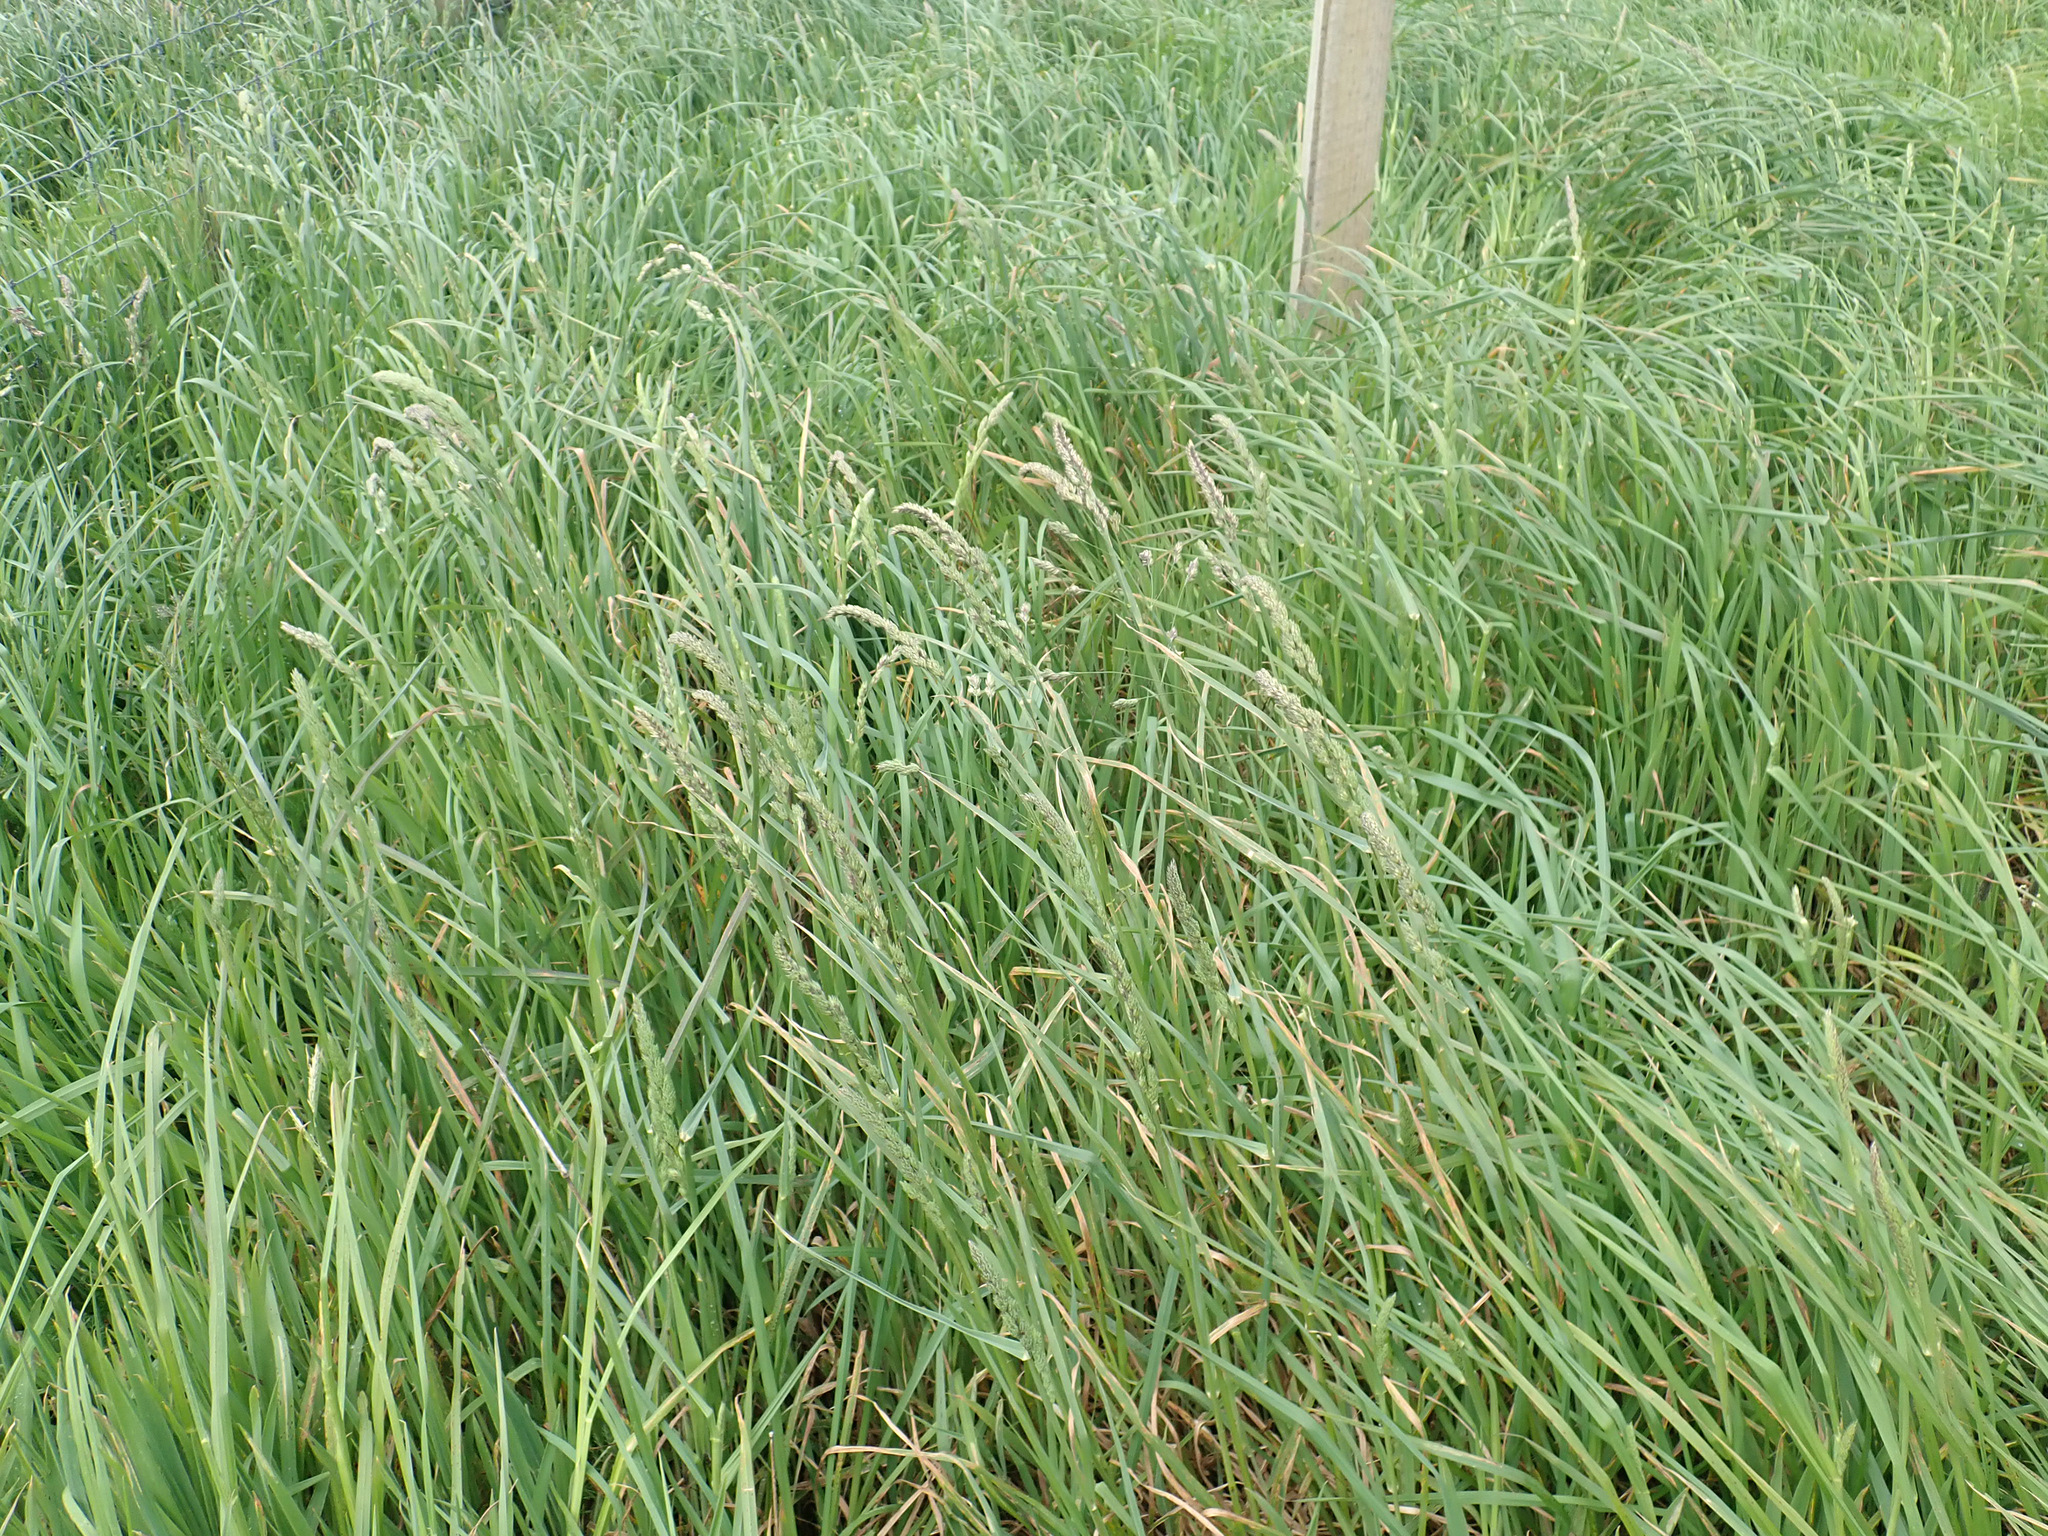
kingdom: Plantae
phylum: Tracheophyta
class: Liliopsida
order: Poales
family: Poaceae
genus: Dactylis
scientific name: Dactylis glomerata
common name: Orchardgrass
